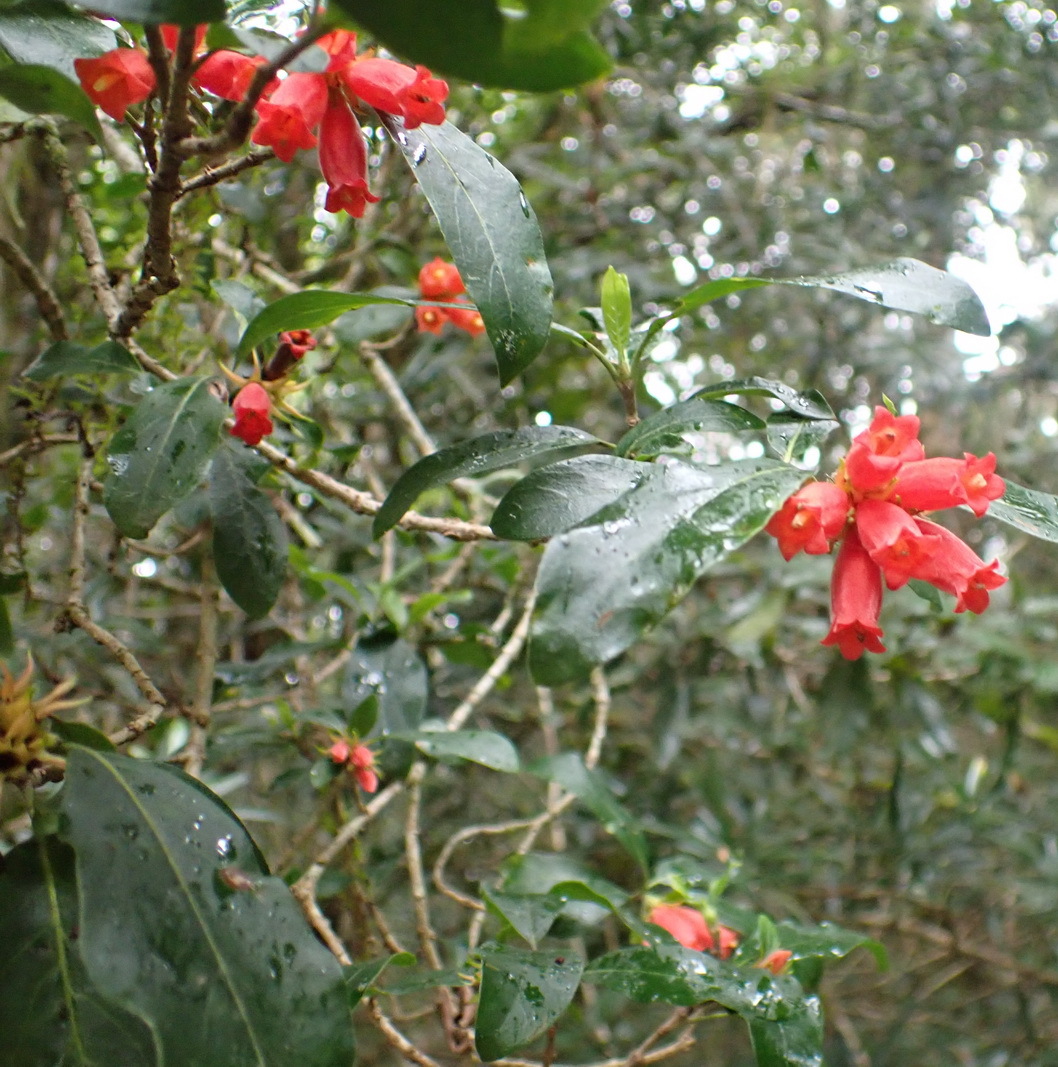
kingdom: Plantae
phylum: Tracheophyta
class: Magnoliopsida
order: Gentianales
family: Rubiaceae
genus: Burchellia
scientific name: Burchellia bubalina
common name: Wild pomegranate
